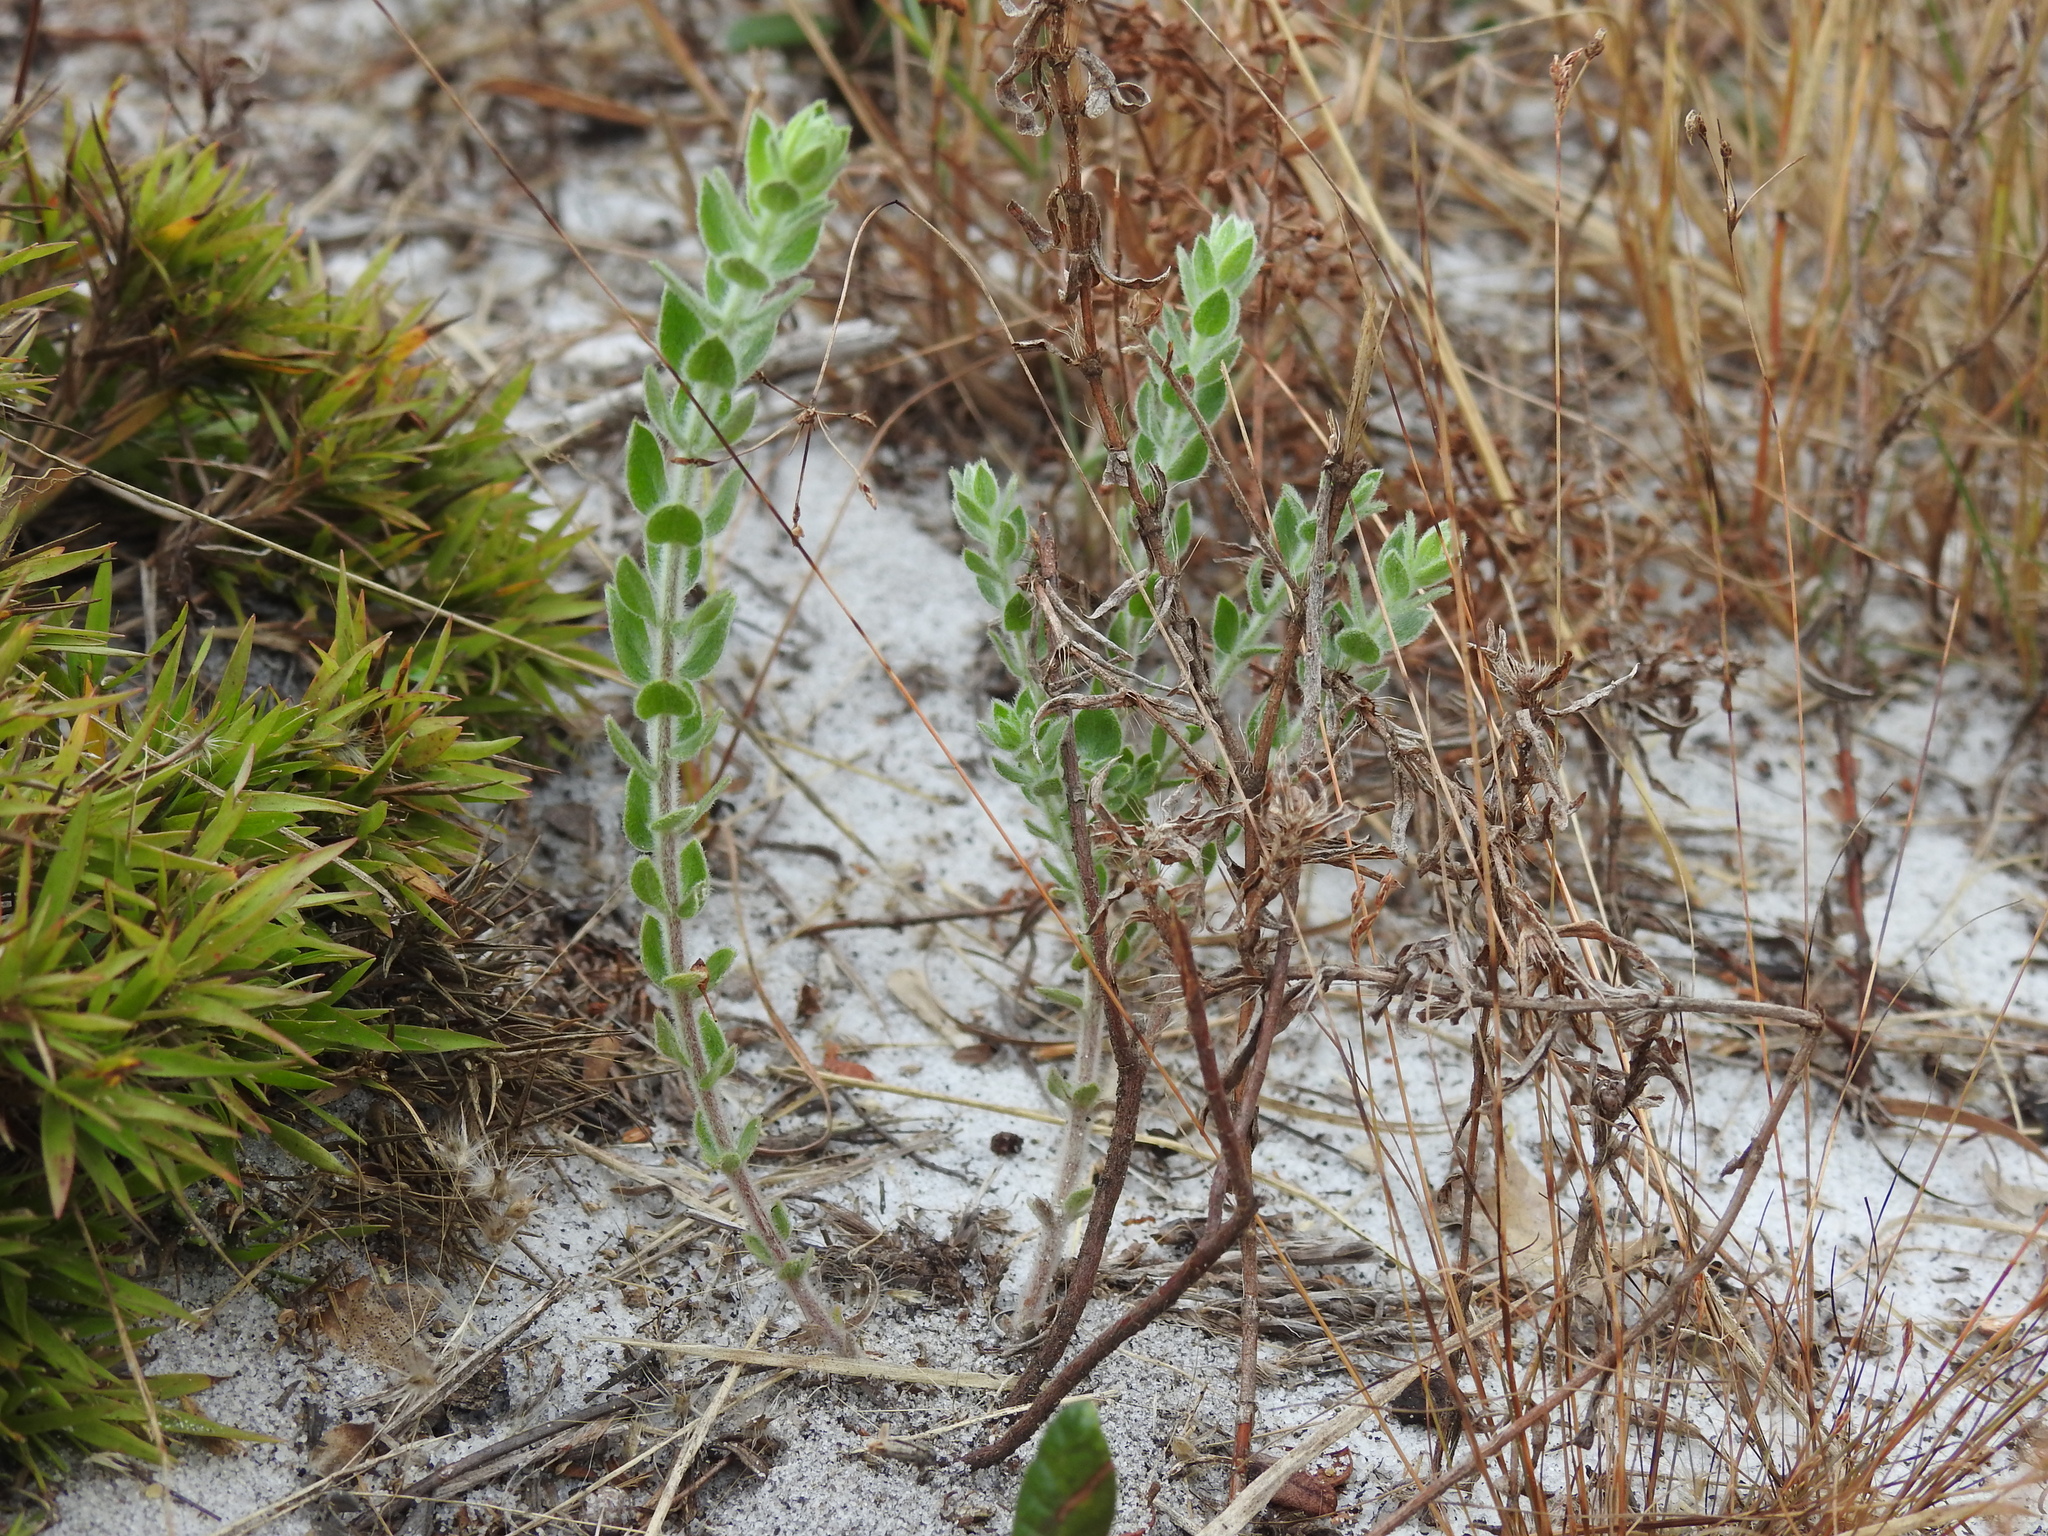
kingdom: Plantae
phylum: Tracheophyta
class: Magnoliopsida
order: Malvales
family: Cistaceae
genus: Lechea
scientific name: Lechea cernua
